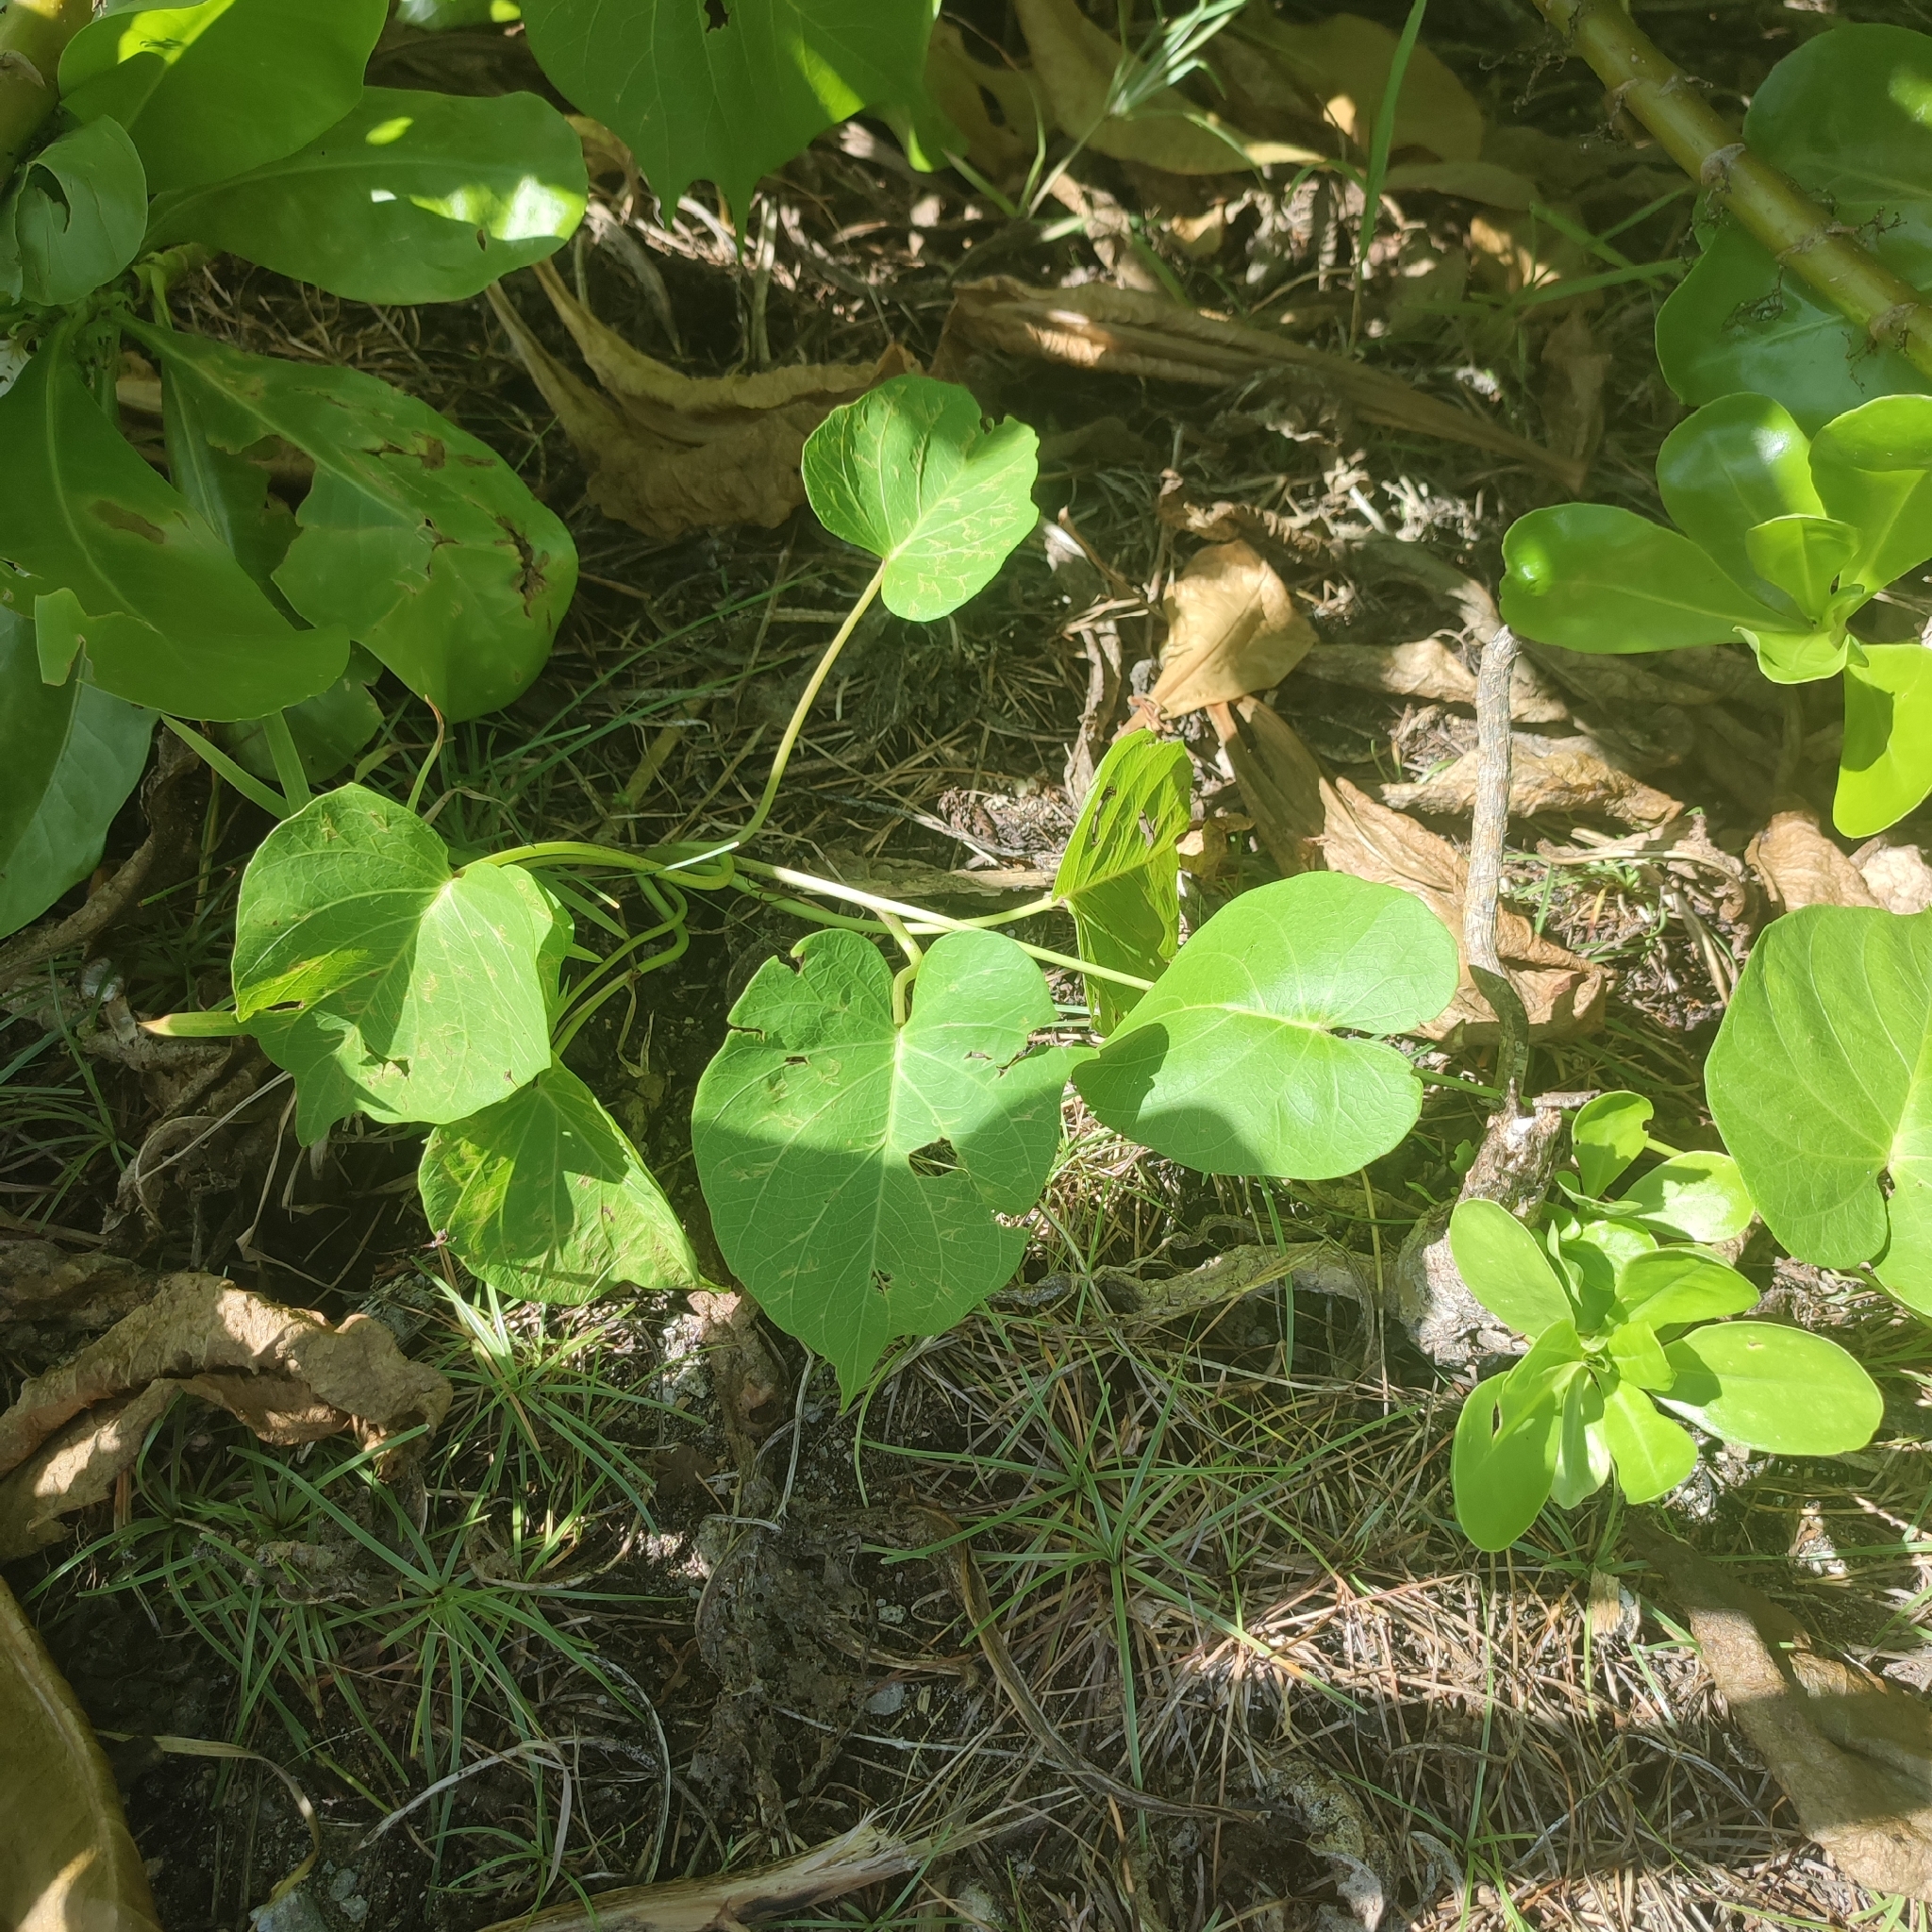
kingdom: Plantae
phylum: Tracheophyta
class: Magnoliopsida
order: Solanales
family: Convolvulaceae
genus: Ipomoea
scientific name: Ipomoea violacea
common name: Beach moonflower
